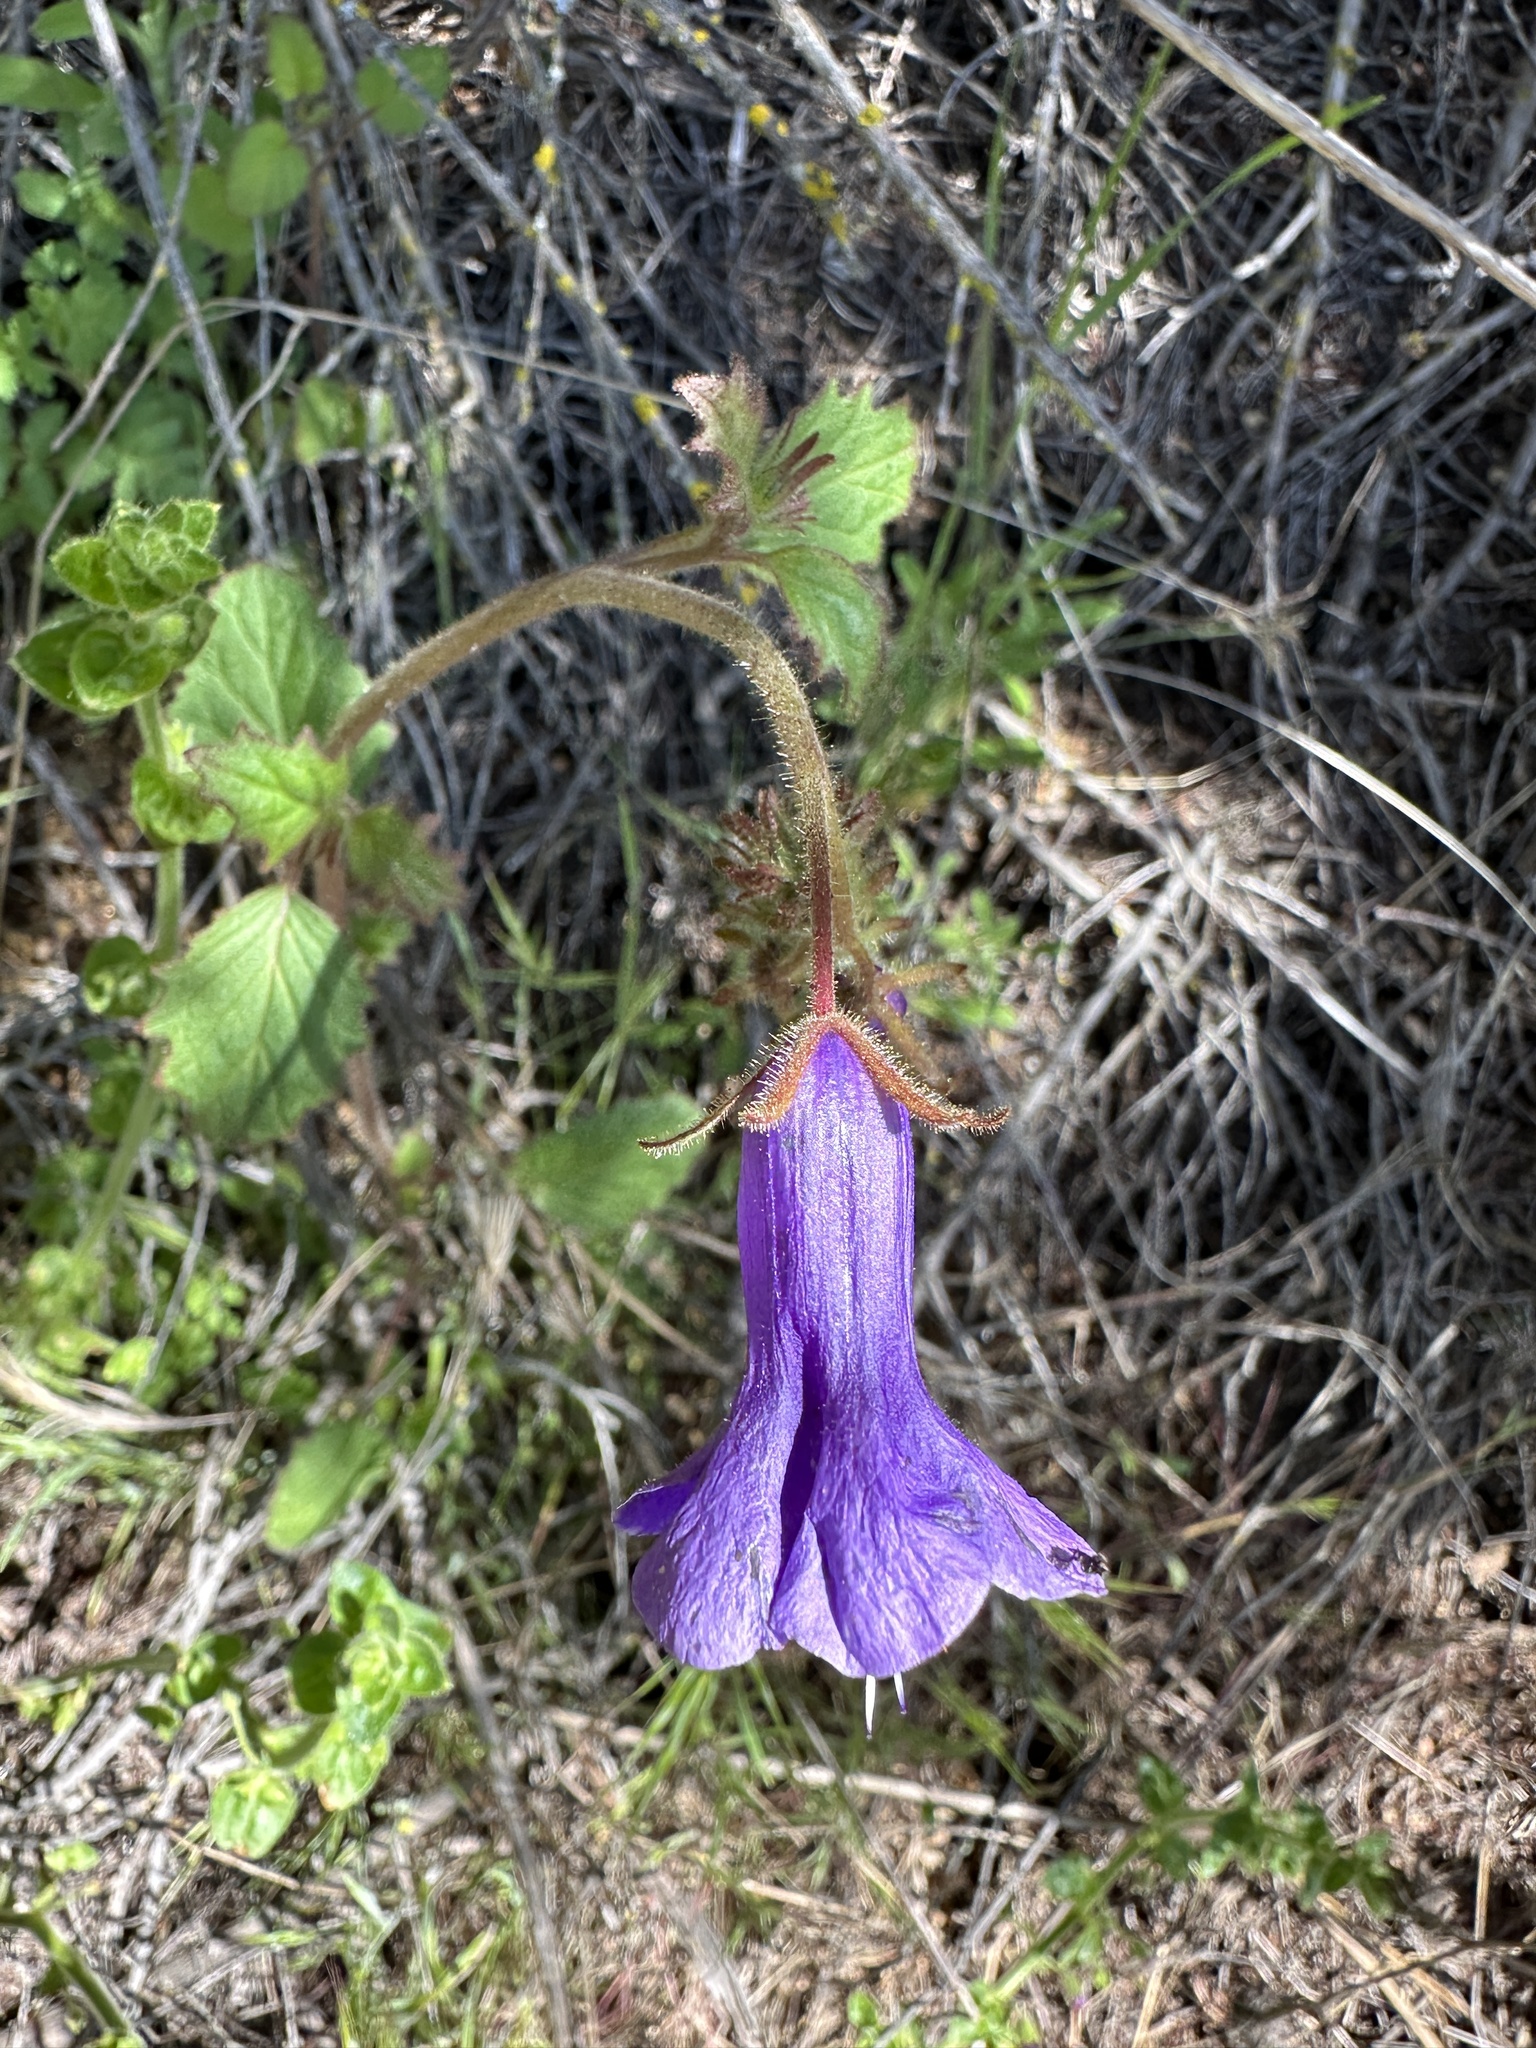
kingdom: Plantae
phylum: Tracheophyta
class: Magnoliopsida
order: Boraginales
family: Hydrophyllaceae
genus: Phacelia
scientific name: Phacelia minor
